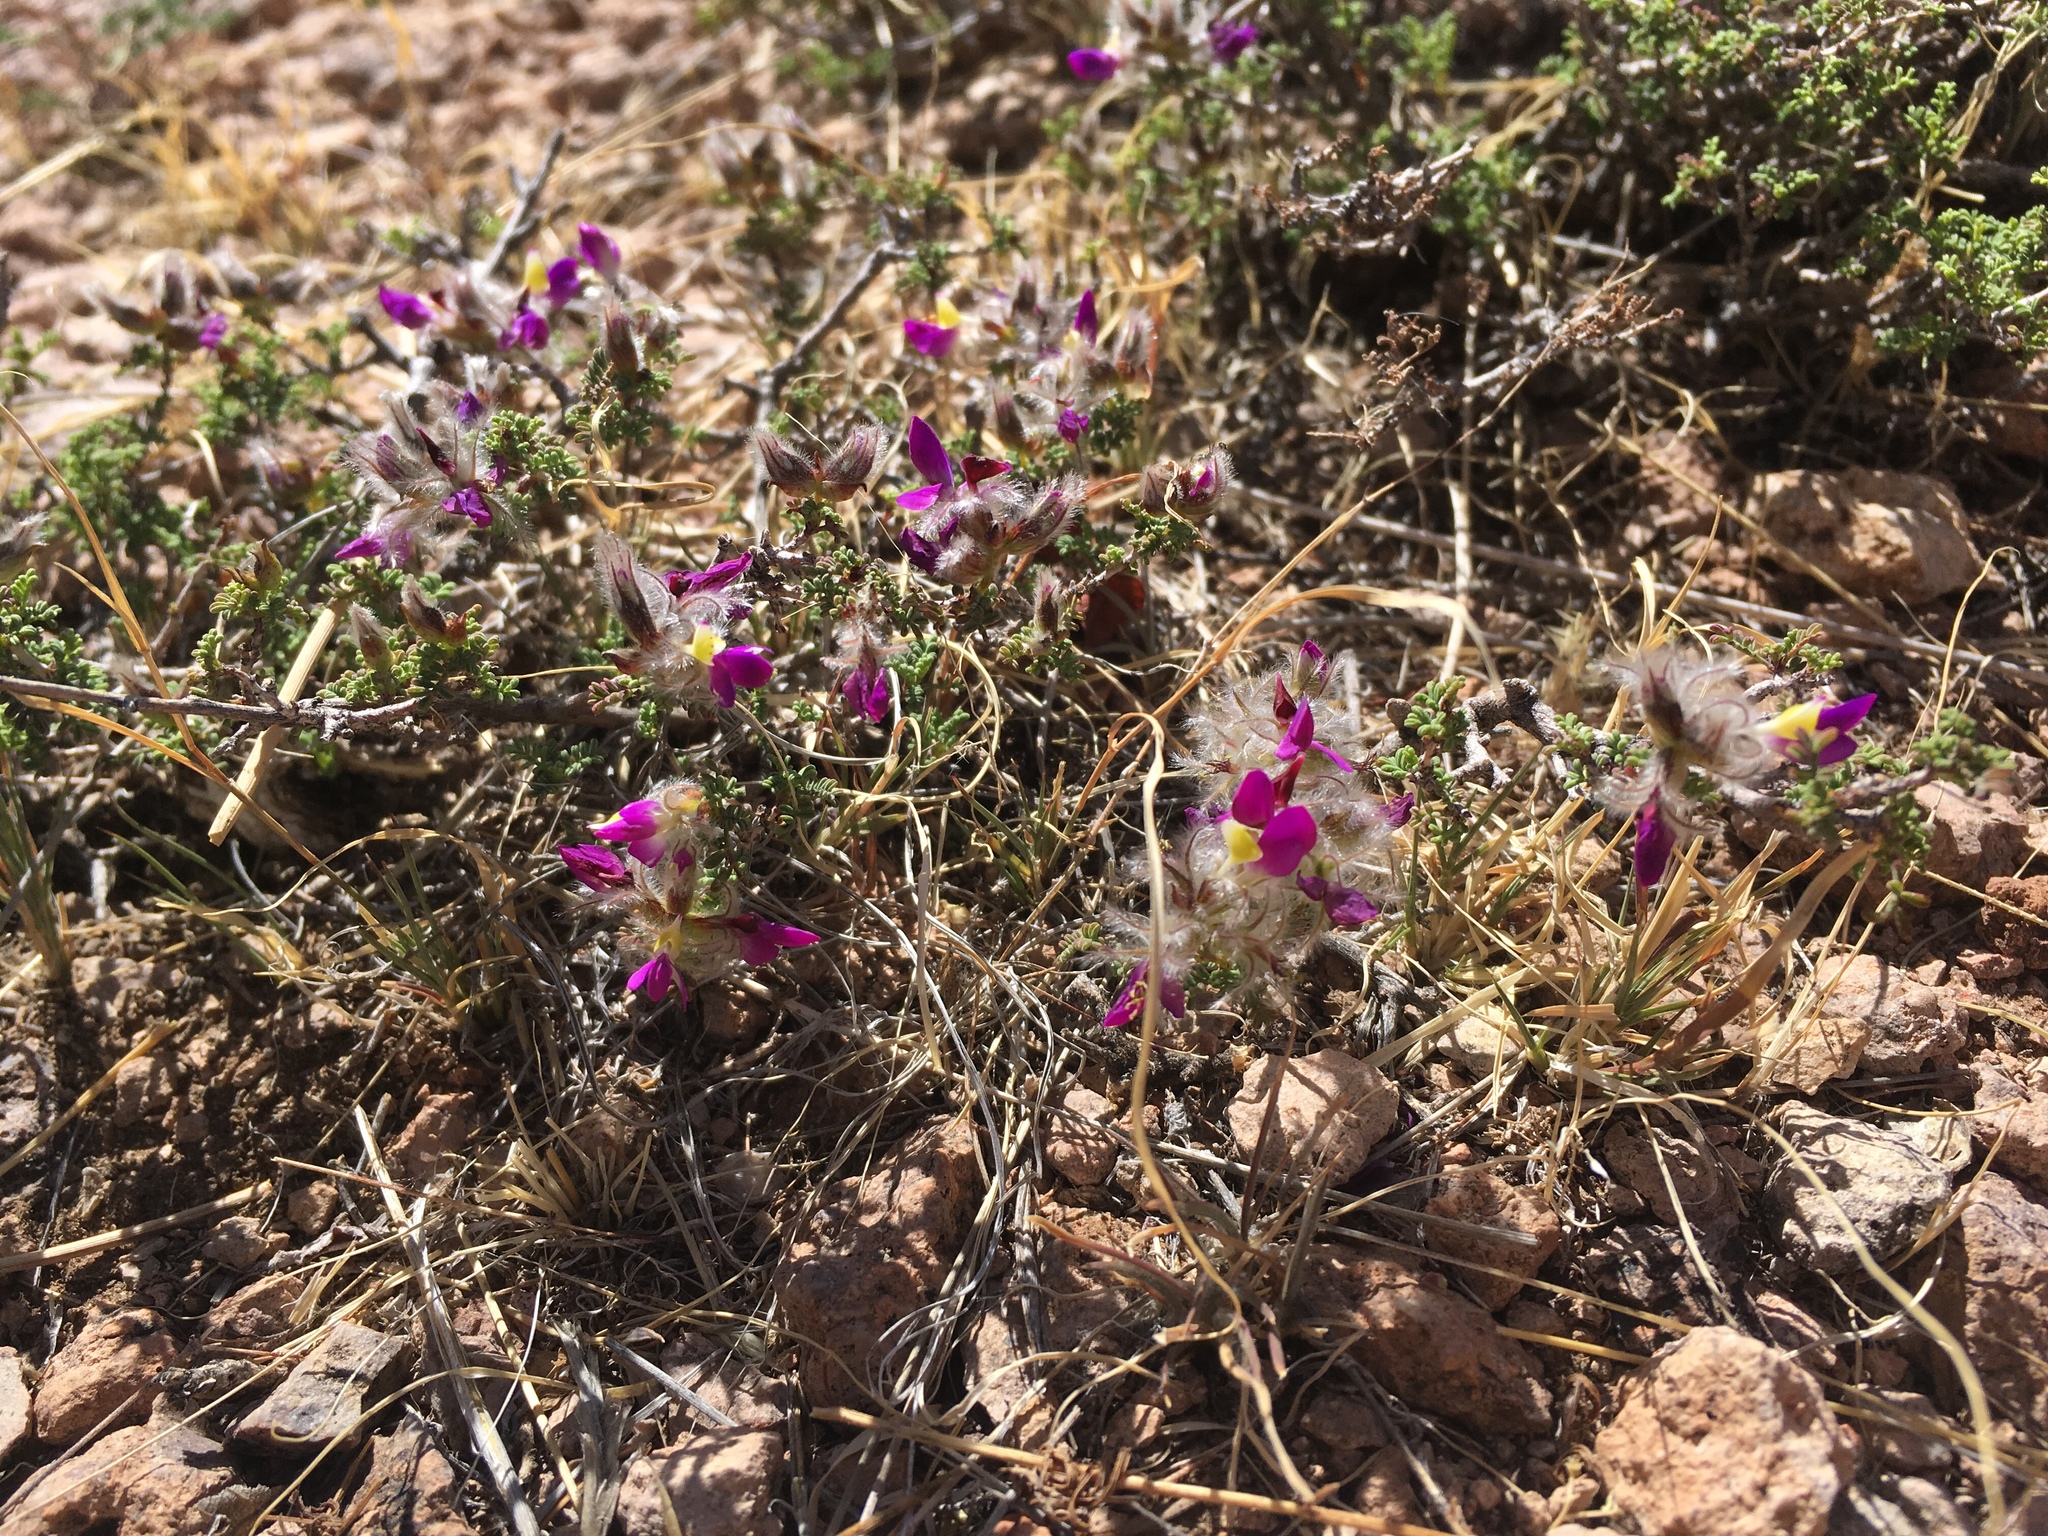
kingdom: Plantae
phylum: Tracheophyta
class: Magnoliopsida
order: Fabales
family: Fabaceae
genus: Dalea
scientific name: Dalea formosa
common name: Feather-plume dalea
